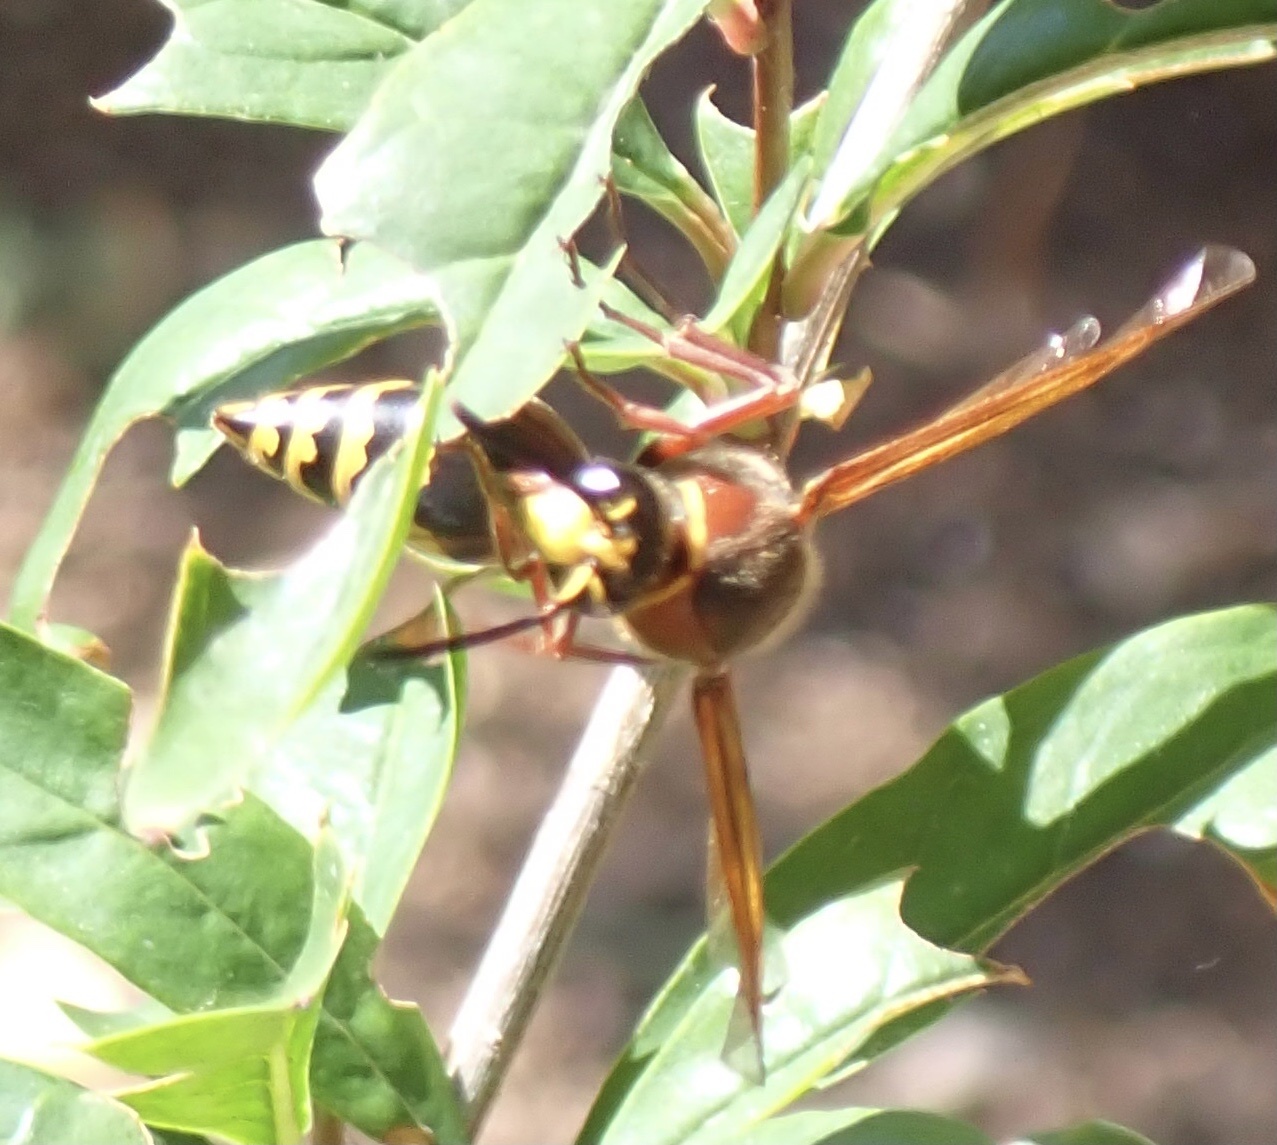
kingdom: Animalia
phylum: Arthropoda
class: Insecta
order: Hymenoptera
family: Eumenidae
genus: Delta
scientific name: Delta unguiculatum
